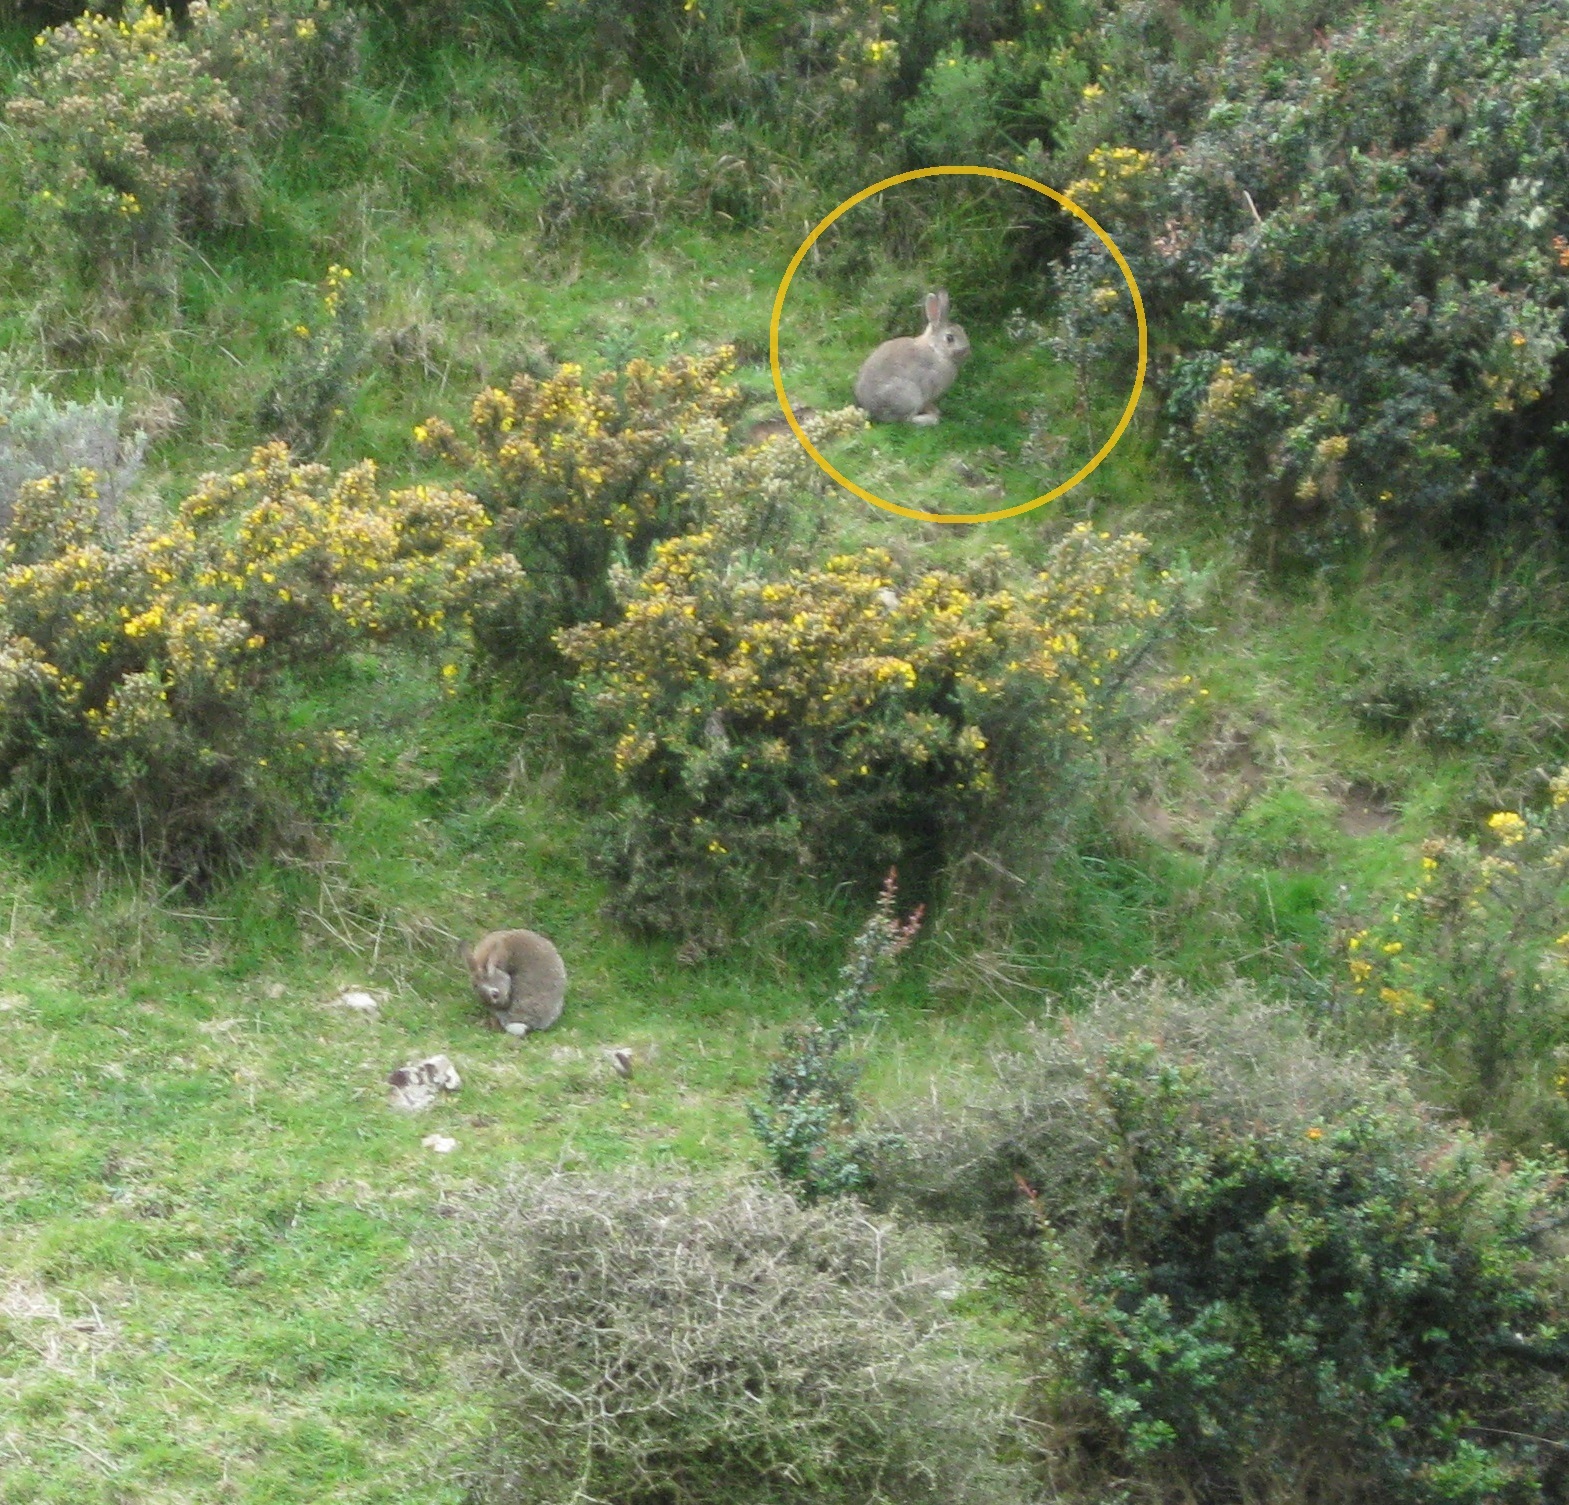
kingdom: Animalia
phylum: Chordata
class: Mammalia
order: Lagomorpha
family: Leporidae
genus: Oryctolagus
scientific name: Oryctolagus cuniculus
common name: European rabbit
